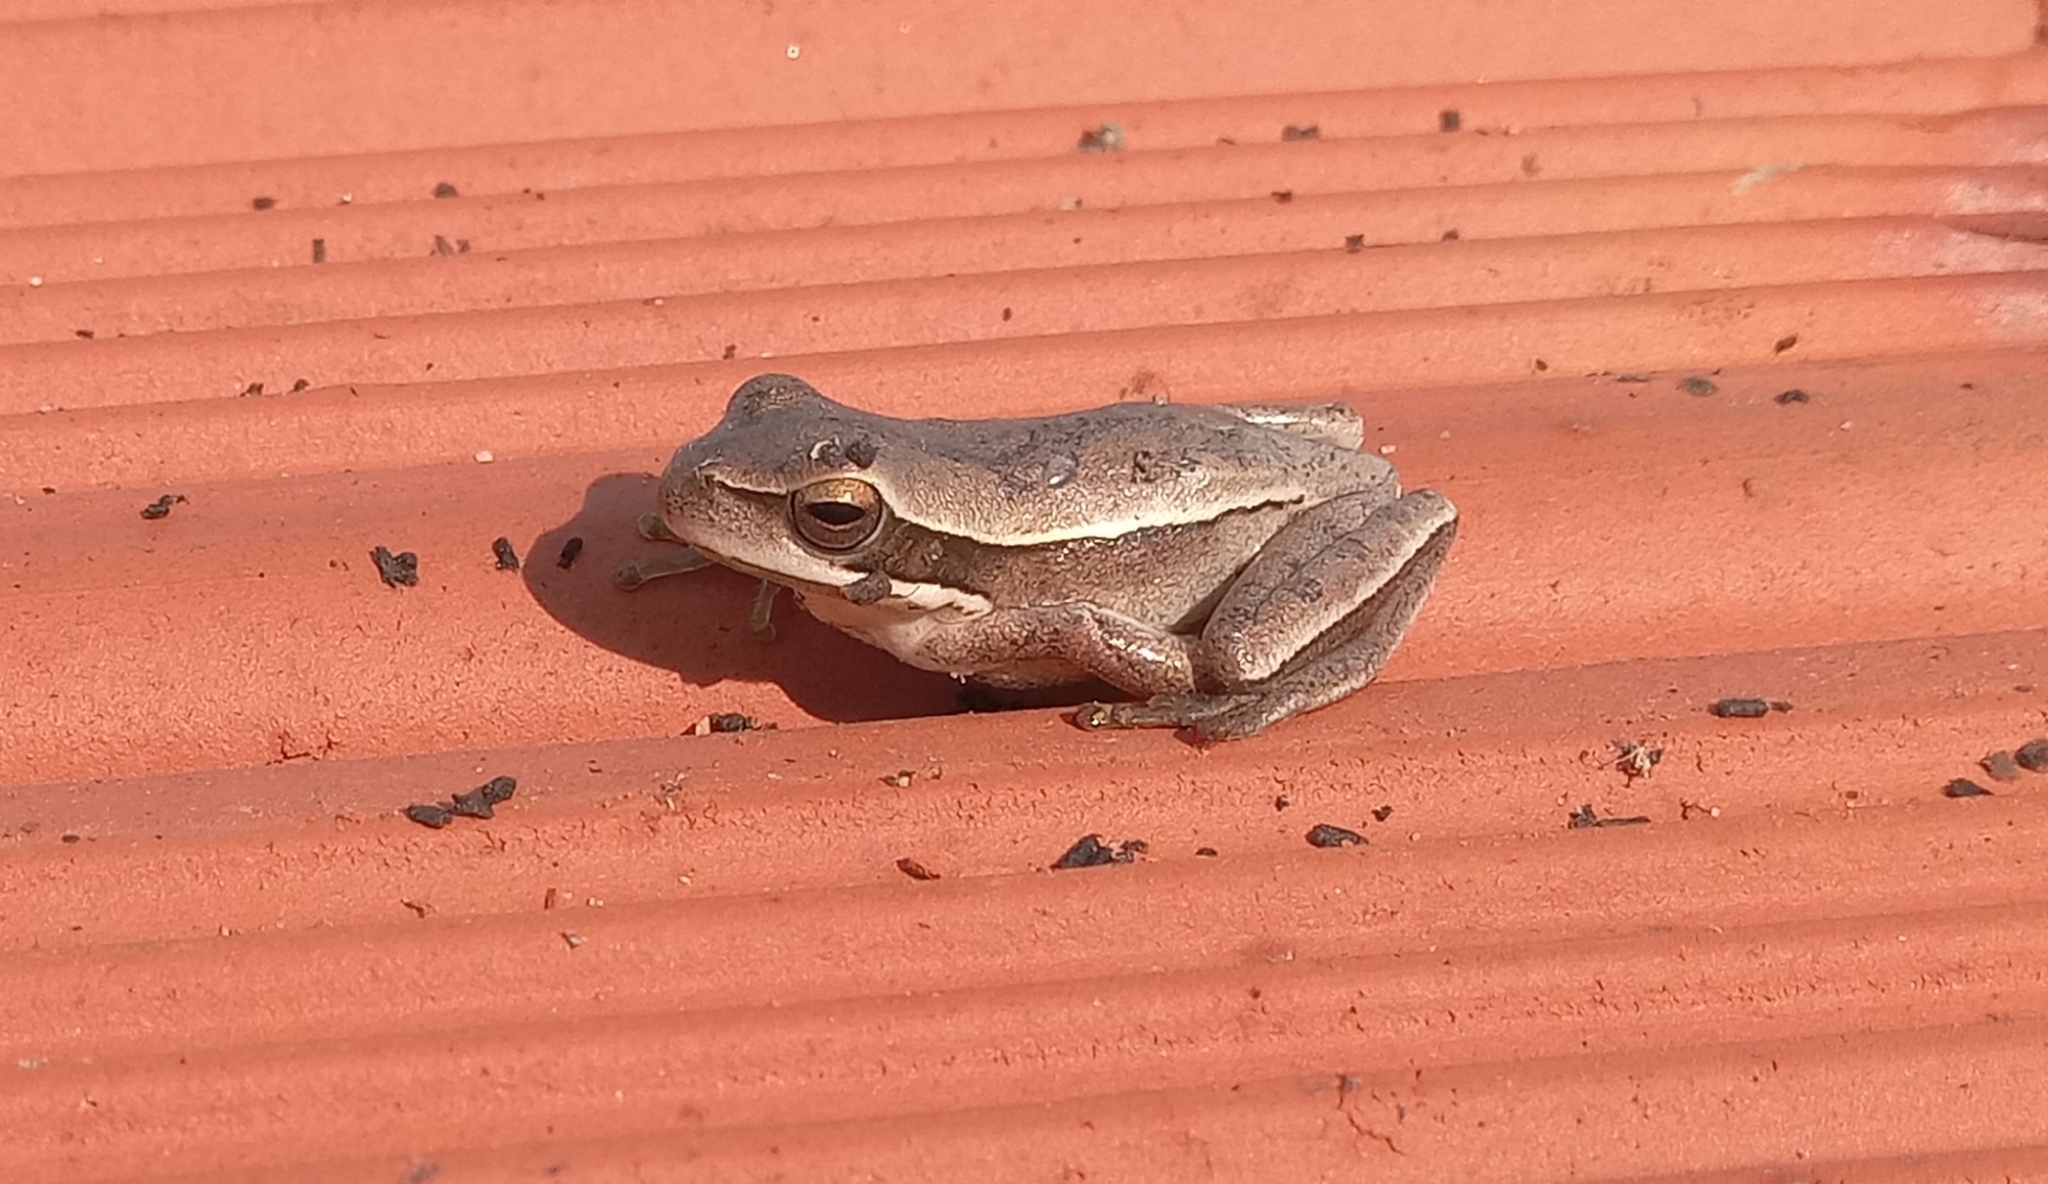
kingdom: Animalia
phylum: Chordata
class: Amphibia
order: Anura
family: Hylidae
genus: Boana
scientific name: Boana pulchella
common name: Montevideo treefrog
